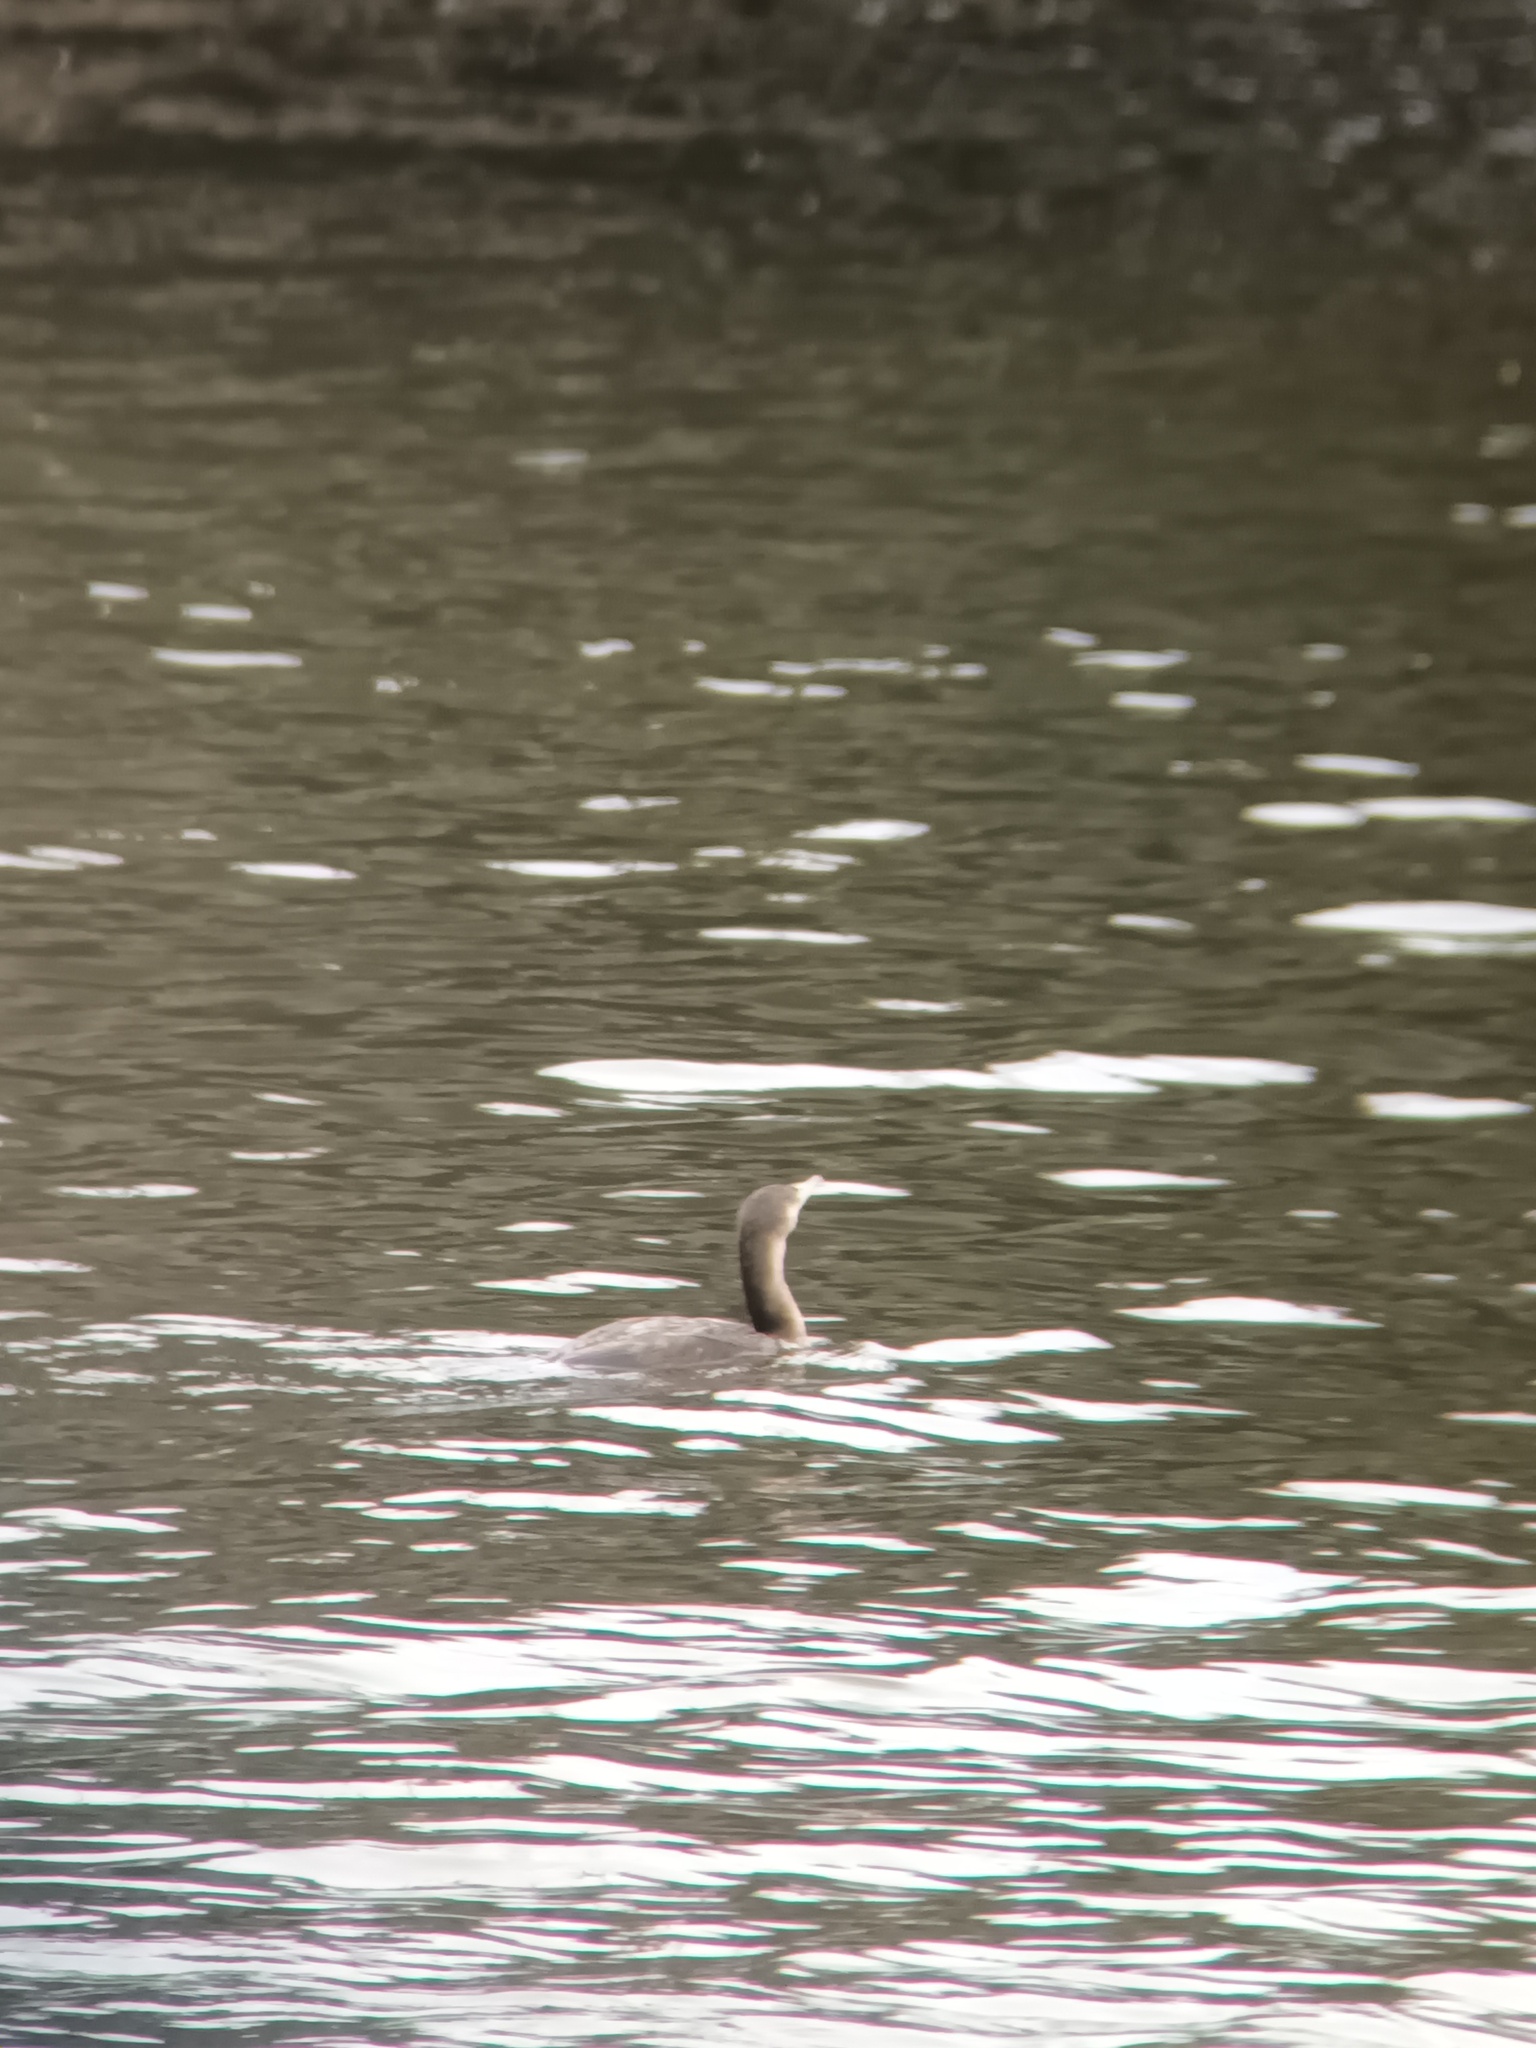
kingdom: Animalia
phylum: Chordata
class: Aves
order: Suliformes
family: Phalacrocoracidae
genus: Phalacrocorax
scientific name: Phalacrocorax carbo
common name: Great cormorant
